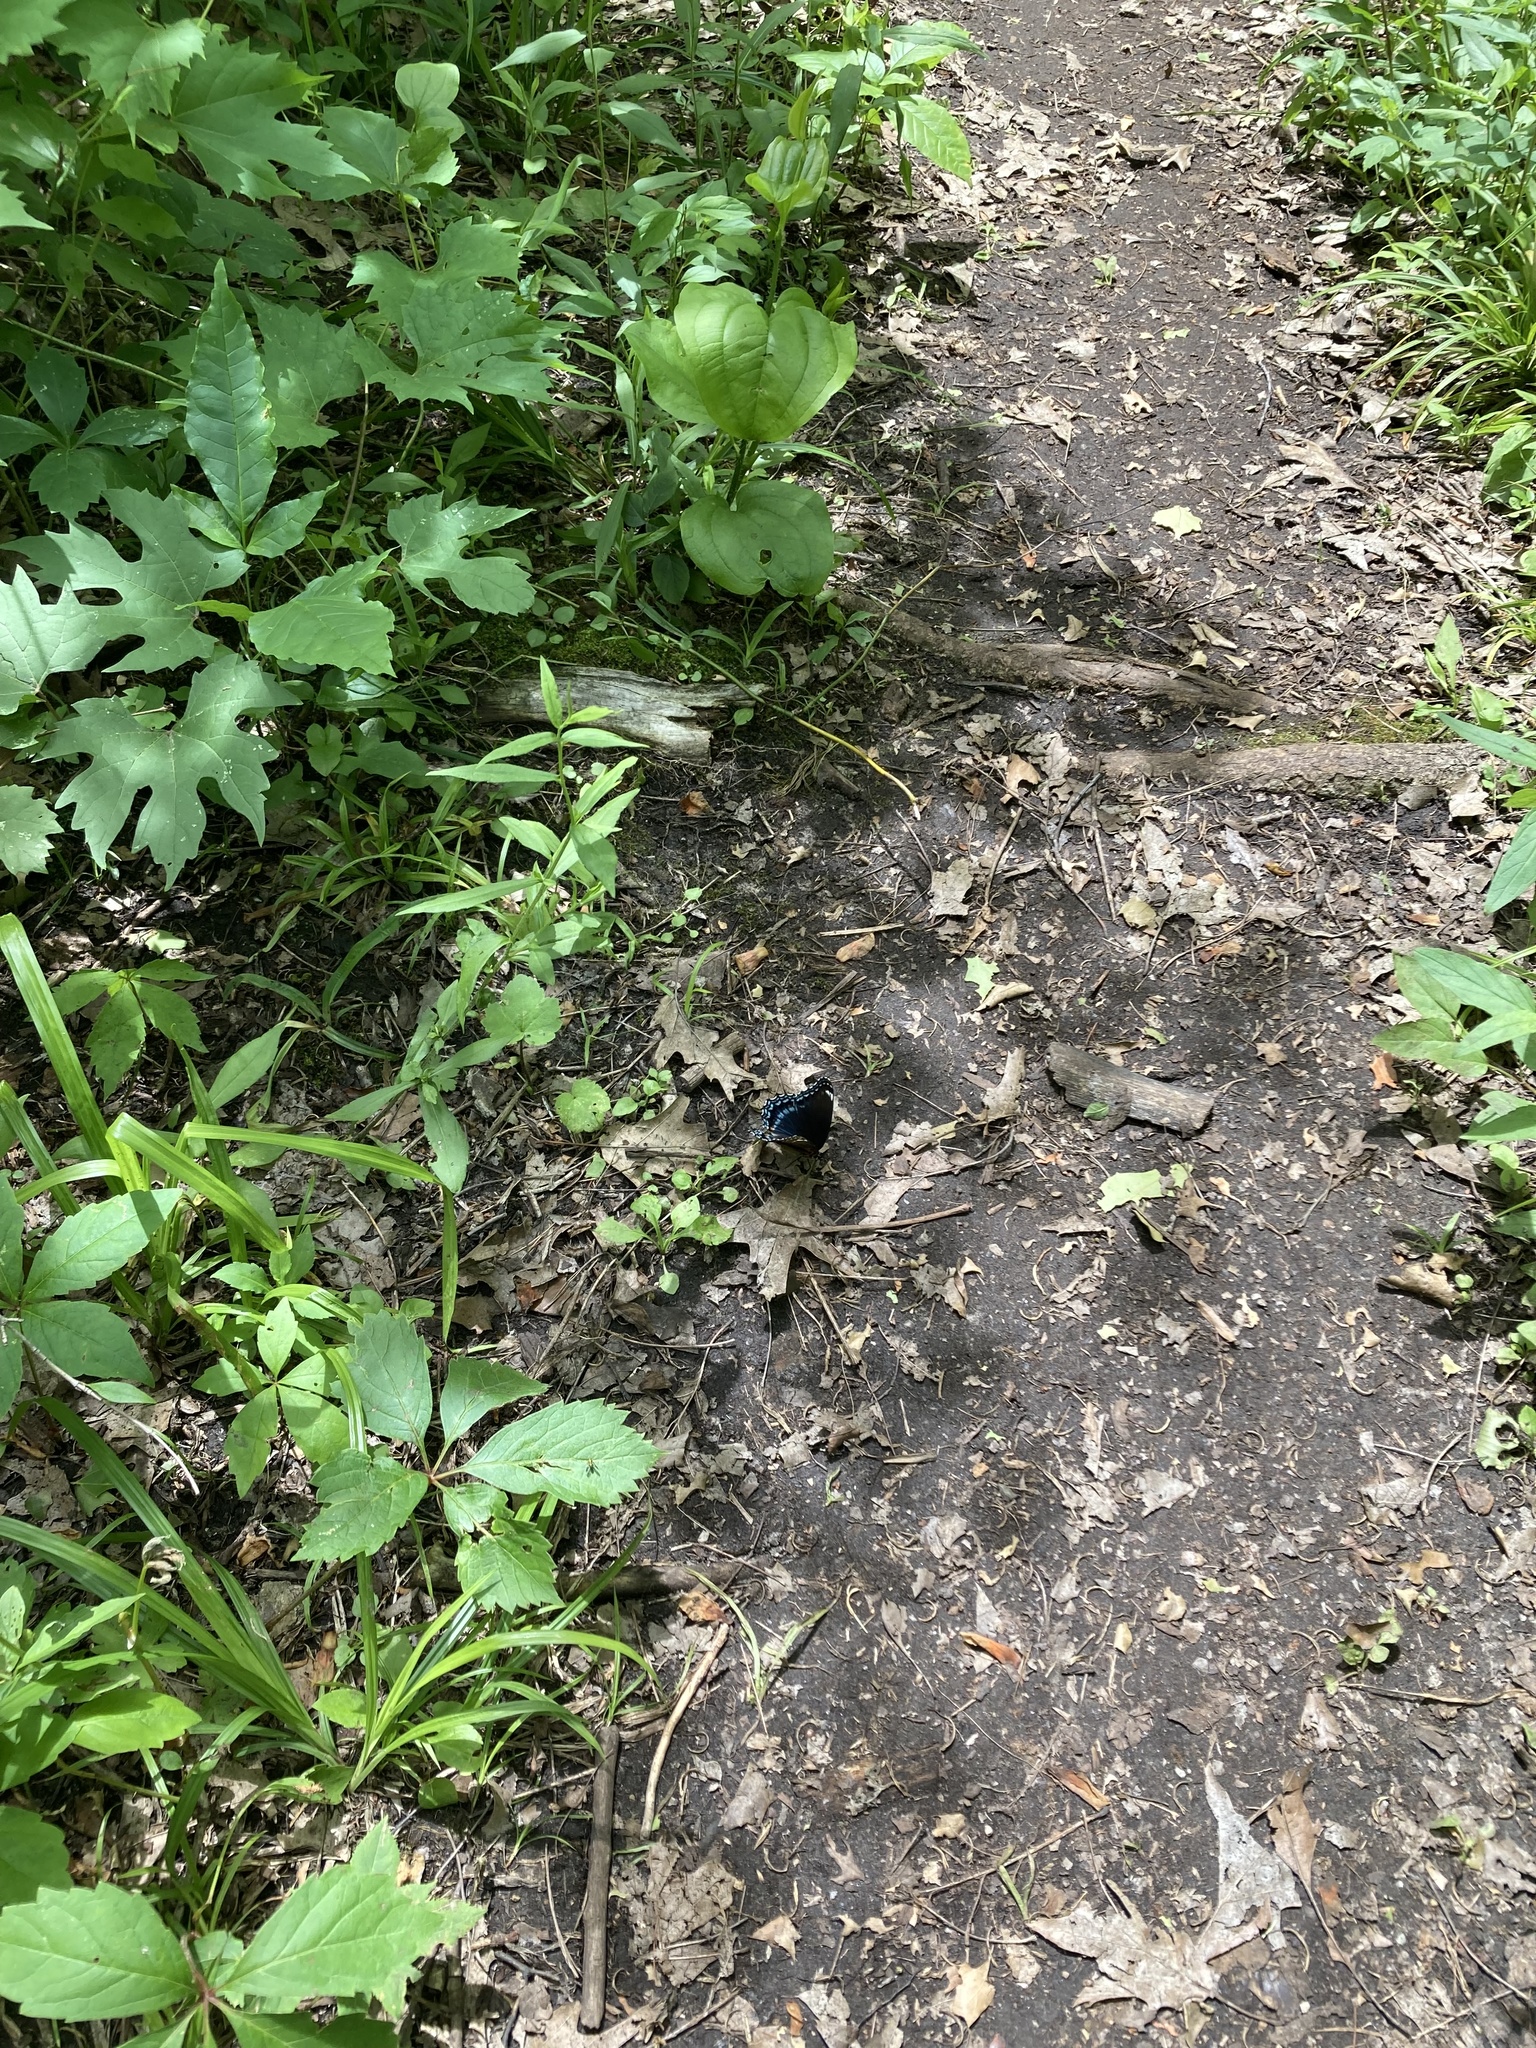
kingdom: Animalia
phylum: Arthropoda
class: Insecta
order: Lepidoptera
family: Nymphalidae
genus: Limenitis
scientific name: Limenitis astyanax
